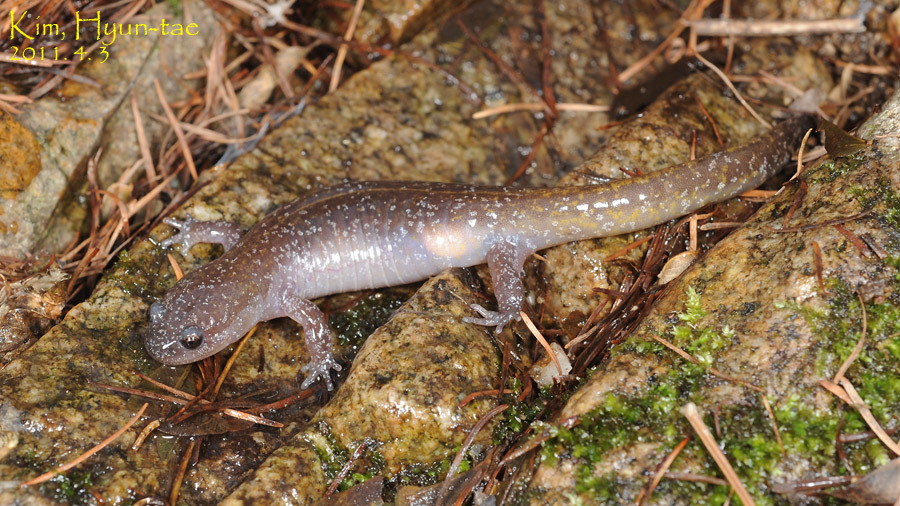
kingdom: Animalia
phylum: Chordata
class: Amphibia
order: Caudata
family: Hynobiidae
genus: Hynobius
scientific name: Hynobius notialis
